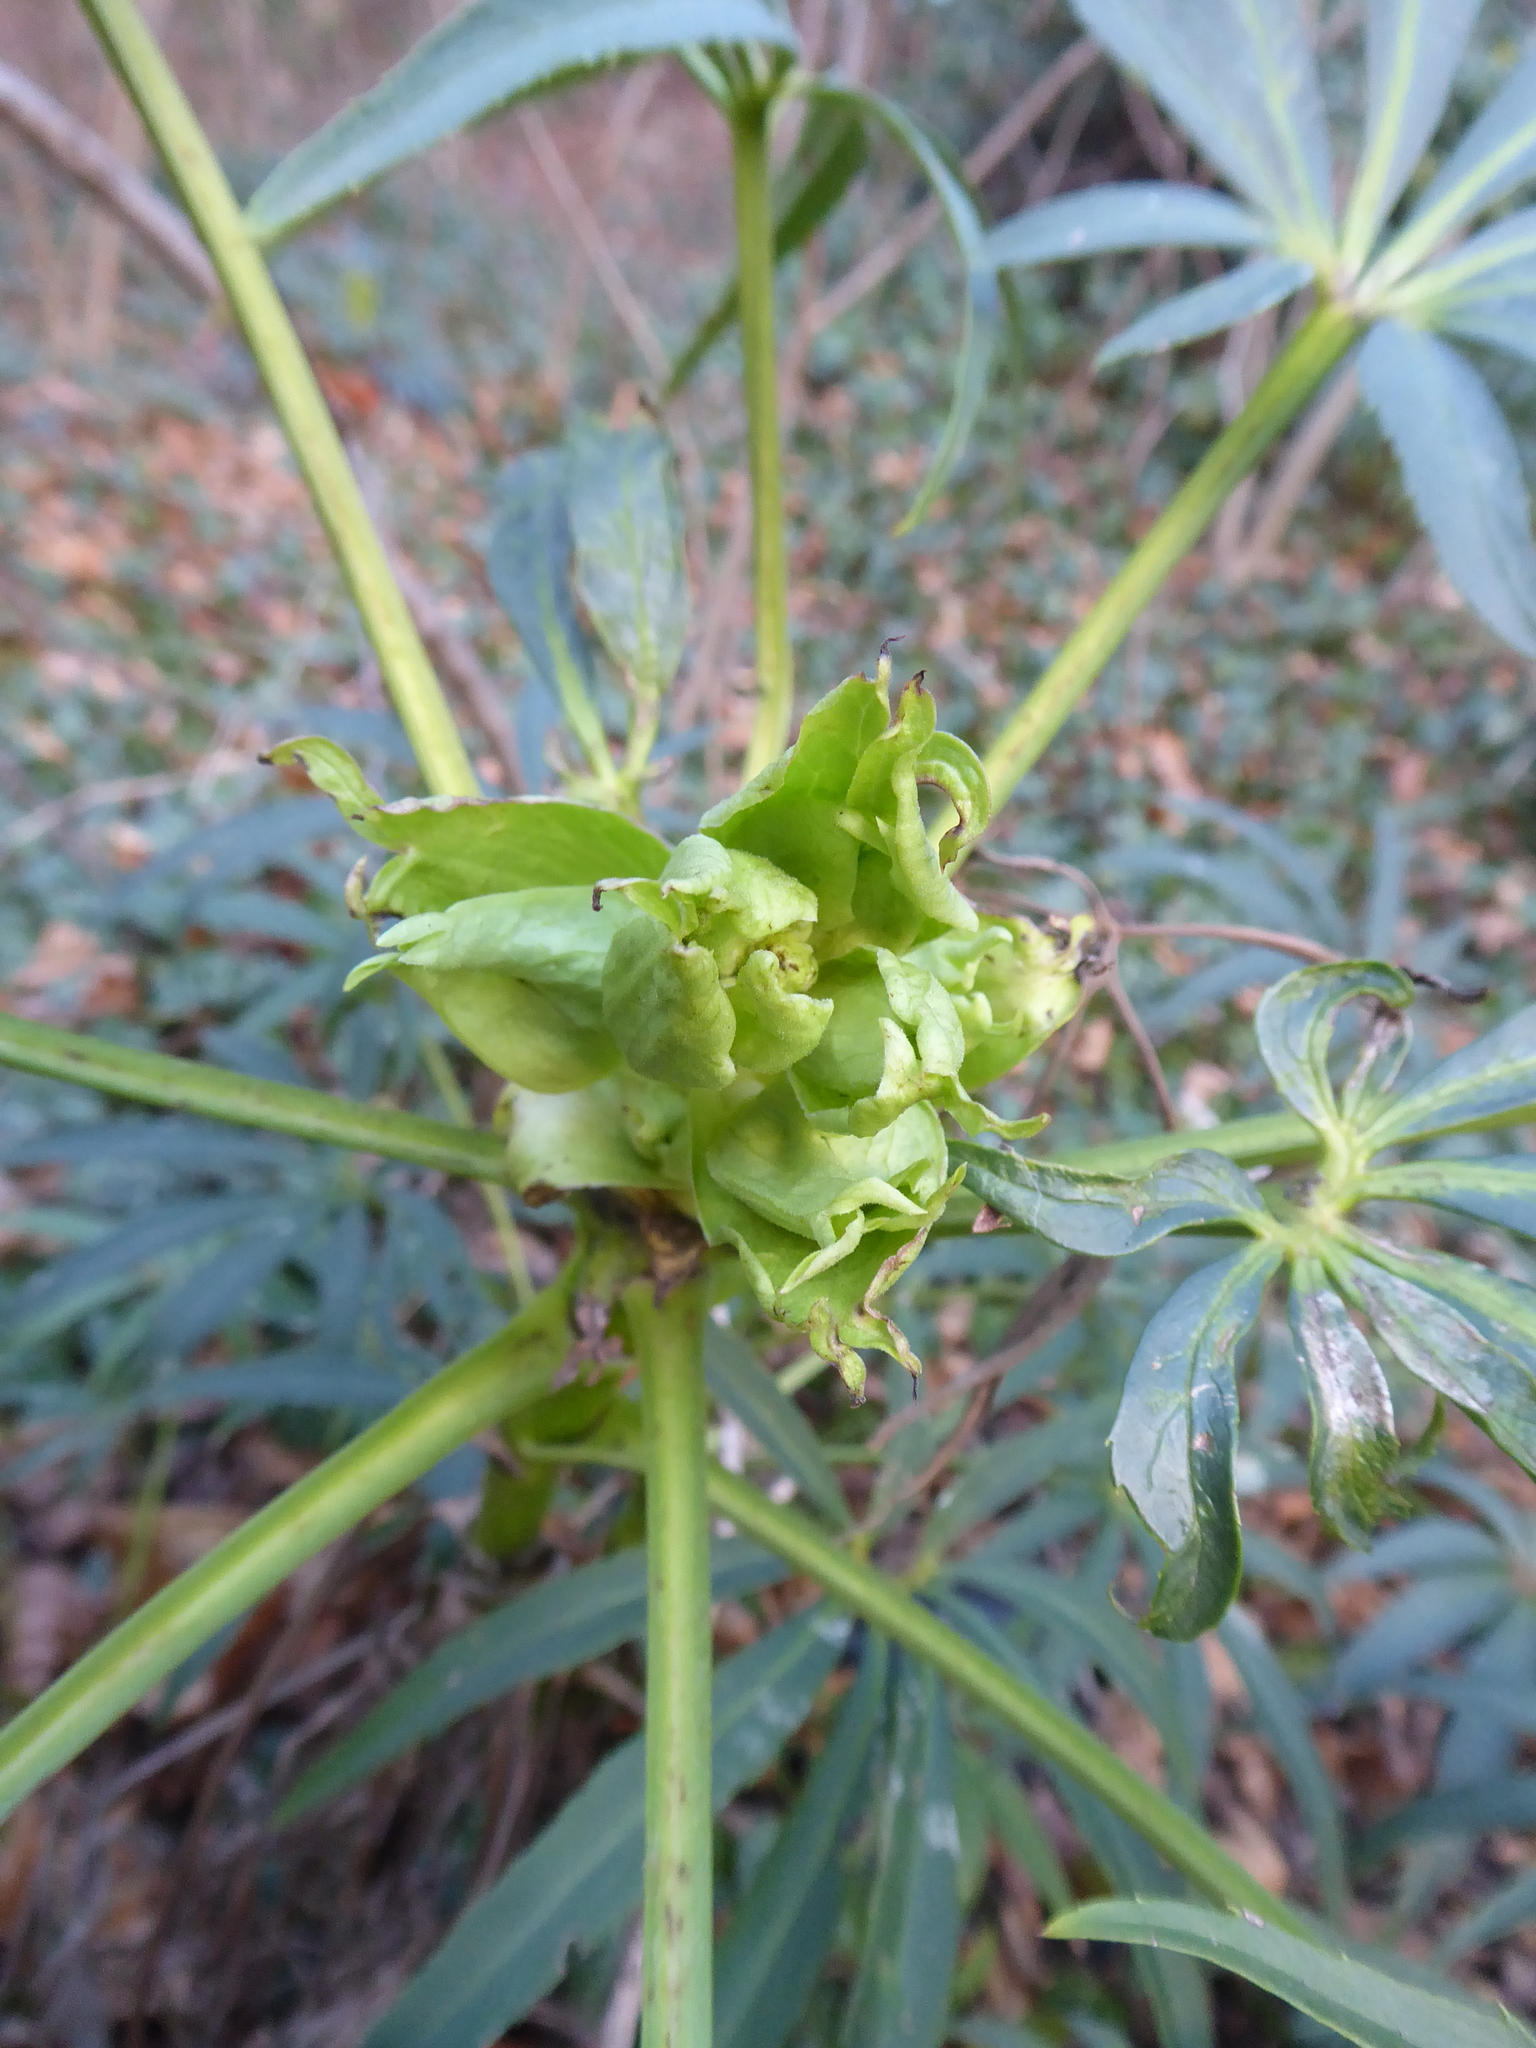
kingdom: Plantae
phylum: Tracheophyta
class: Magnoliopsida
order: Ranunculales
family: Ranunculaceae
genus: Helleborus
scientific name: Helleborus foetidus
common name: Stinking hellebore
